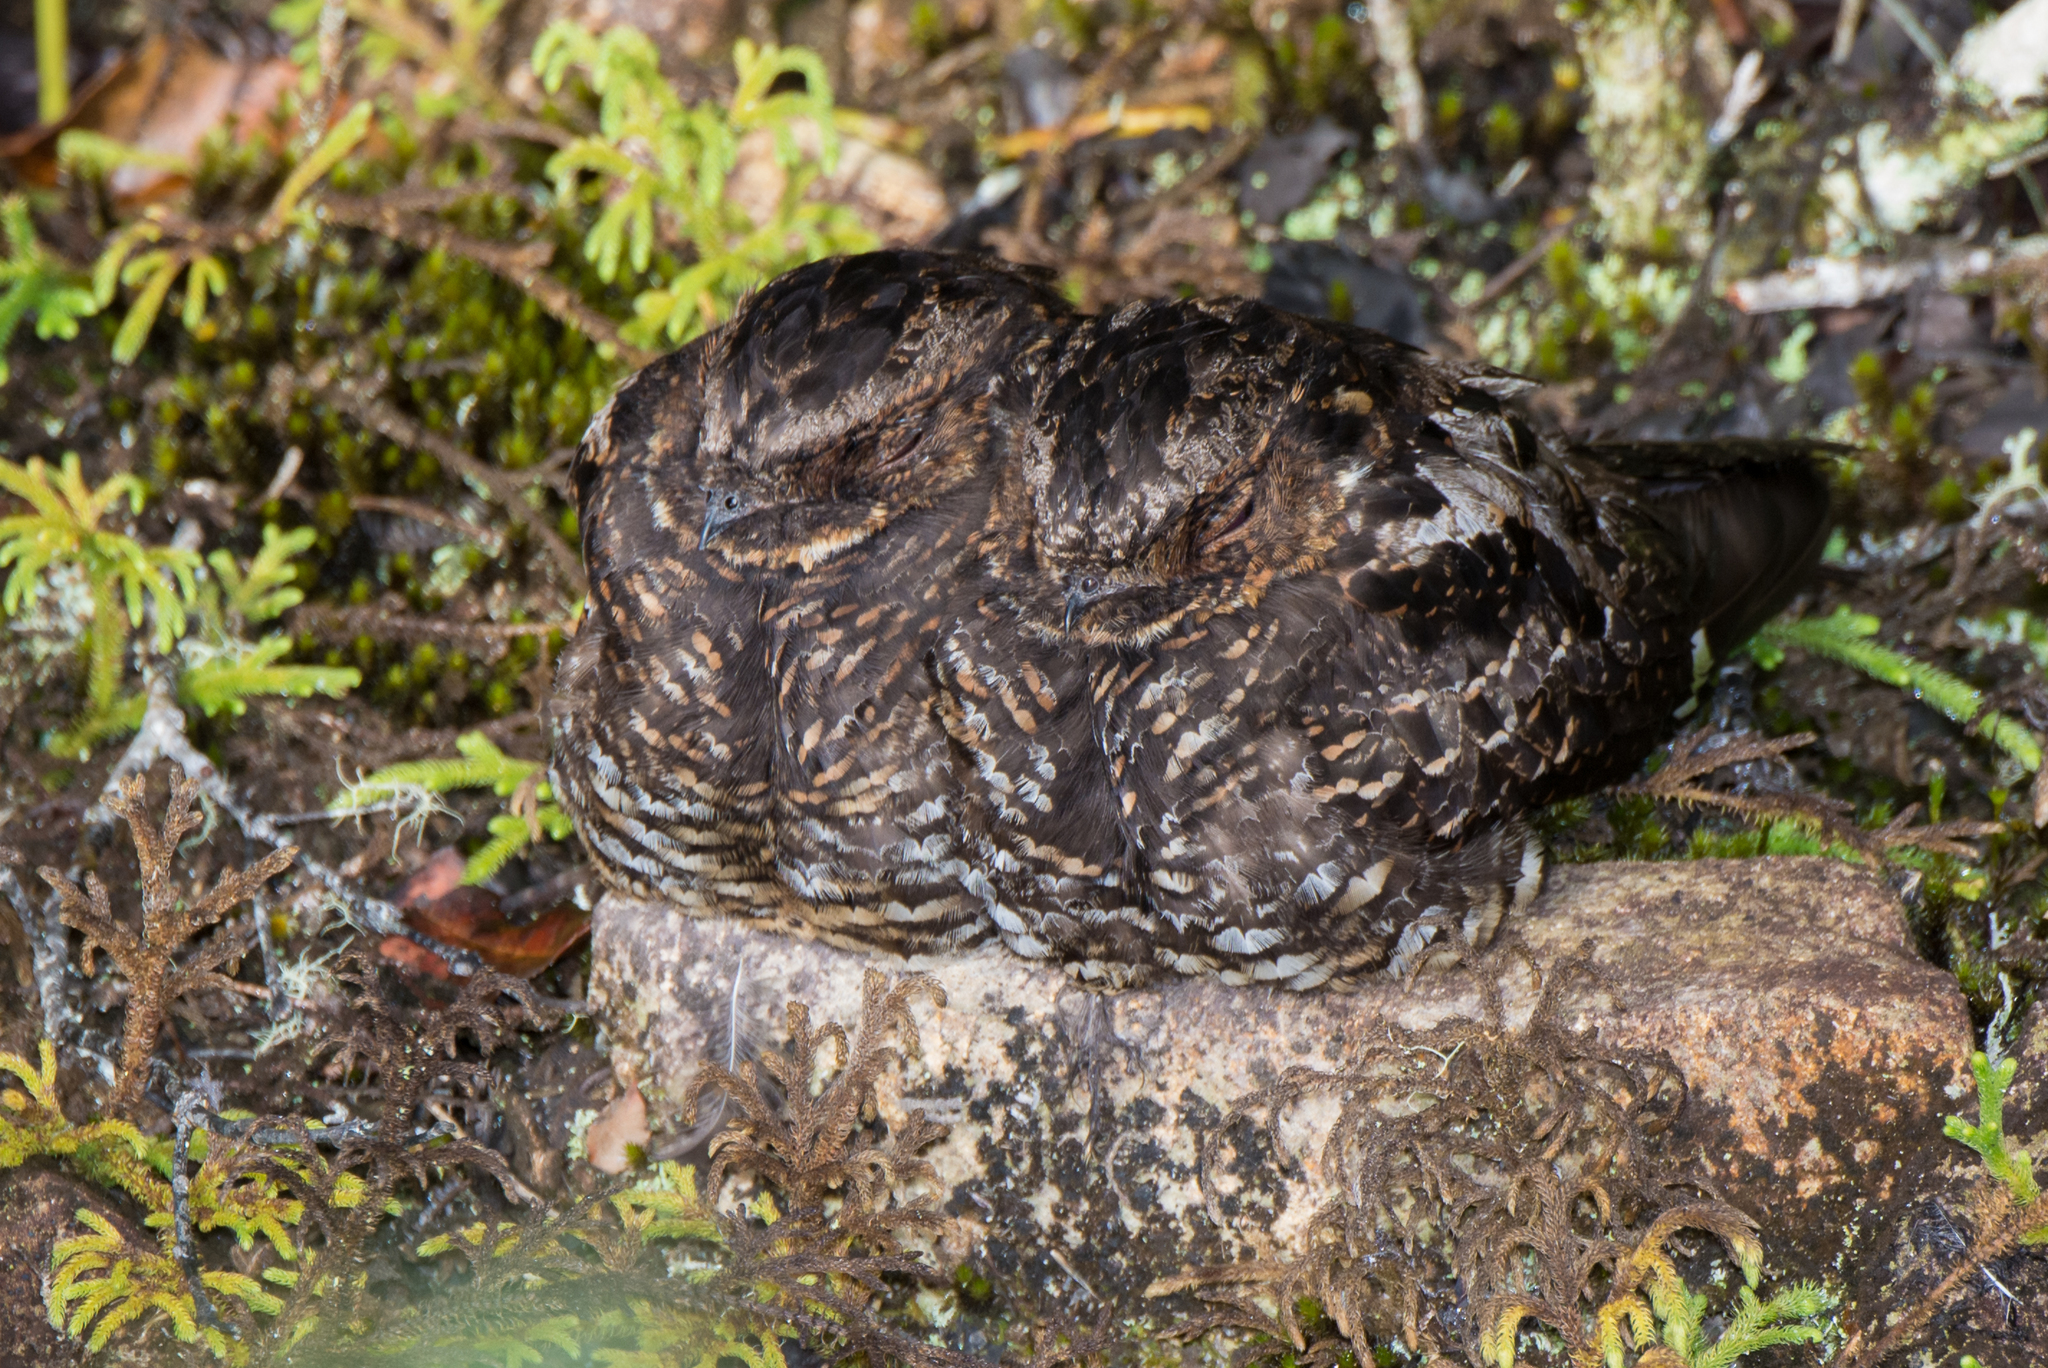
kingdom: Animalia
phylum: Chordata
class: Aves
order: Caprimulgiformes
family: Caprimulgidae
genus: Eurostopodus
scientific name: Eurostopodus diabolicus
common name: Satanic nightjar
